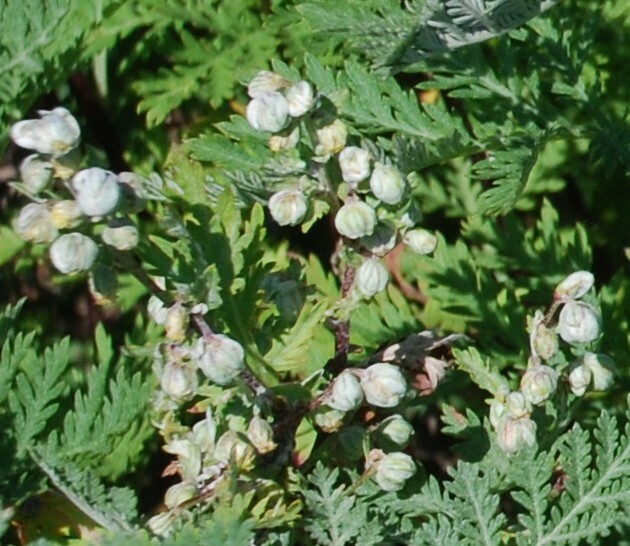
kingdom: Plantae
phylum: Tracheophyta
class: Magnoliopsida
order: Asterales
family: Asteraceae
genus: Artemisia
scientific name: Artemisia gmelinii
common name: Gmelin's wormwood
